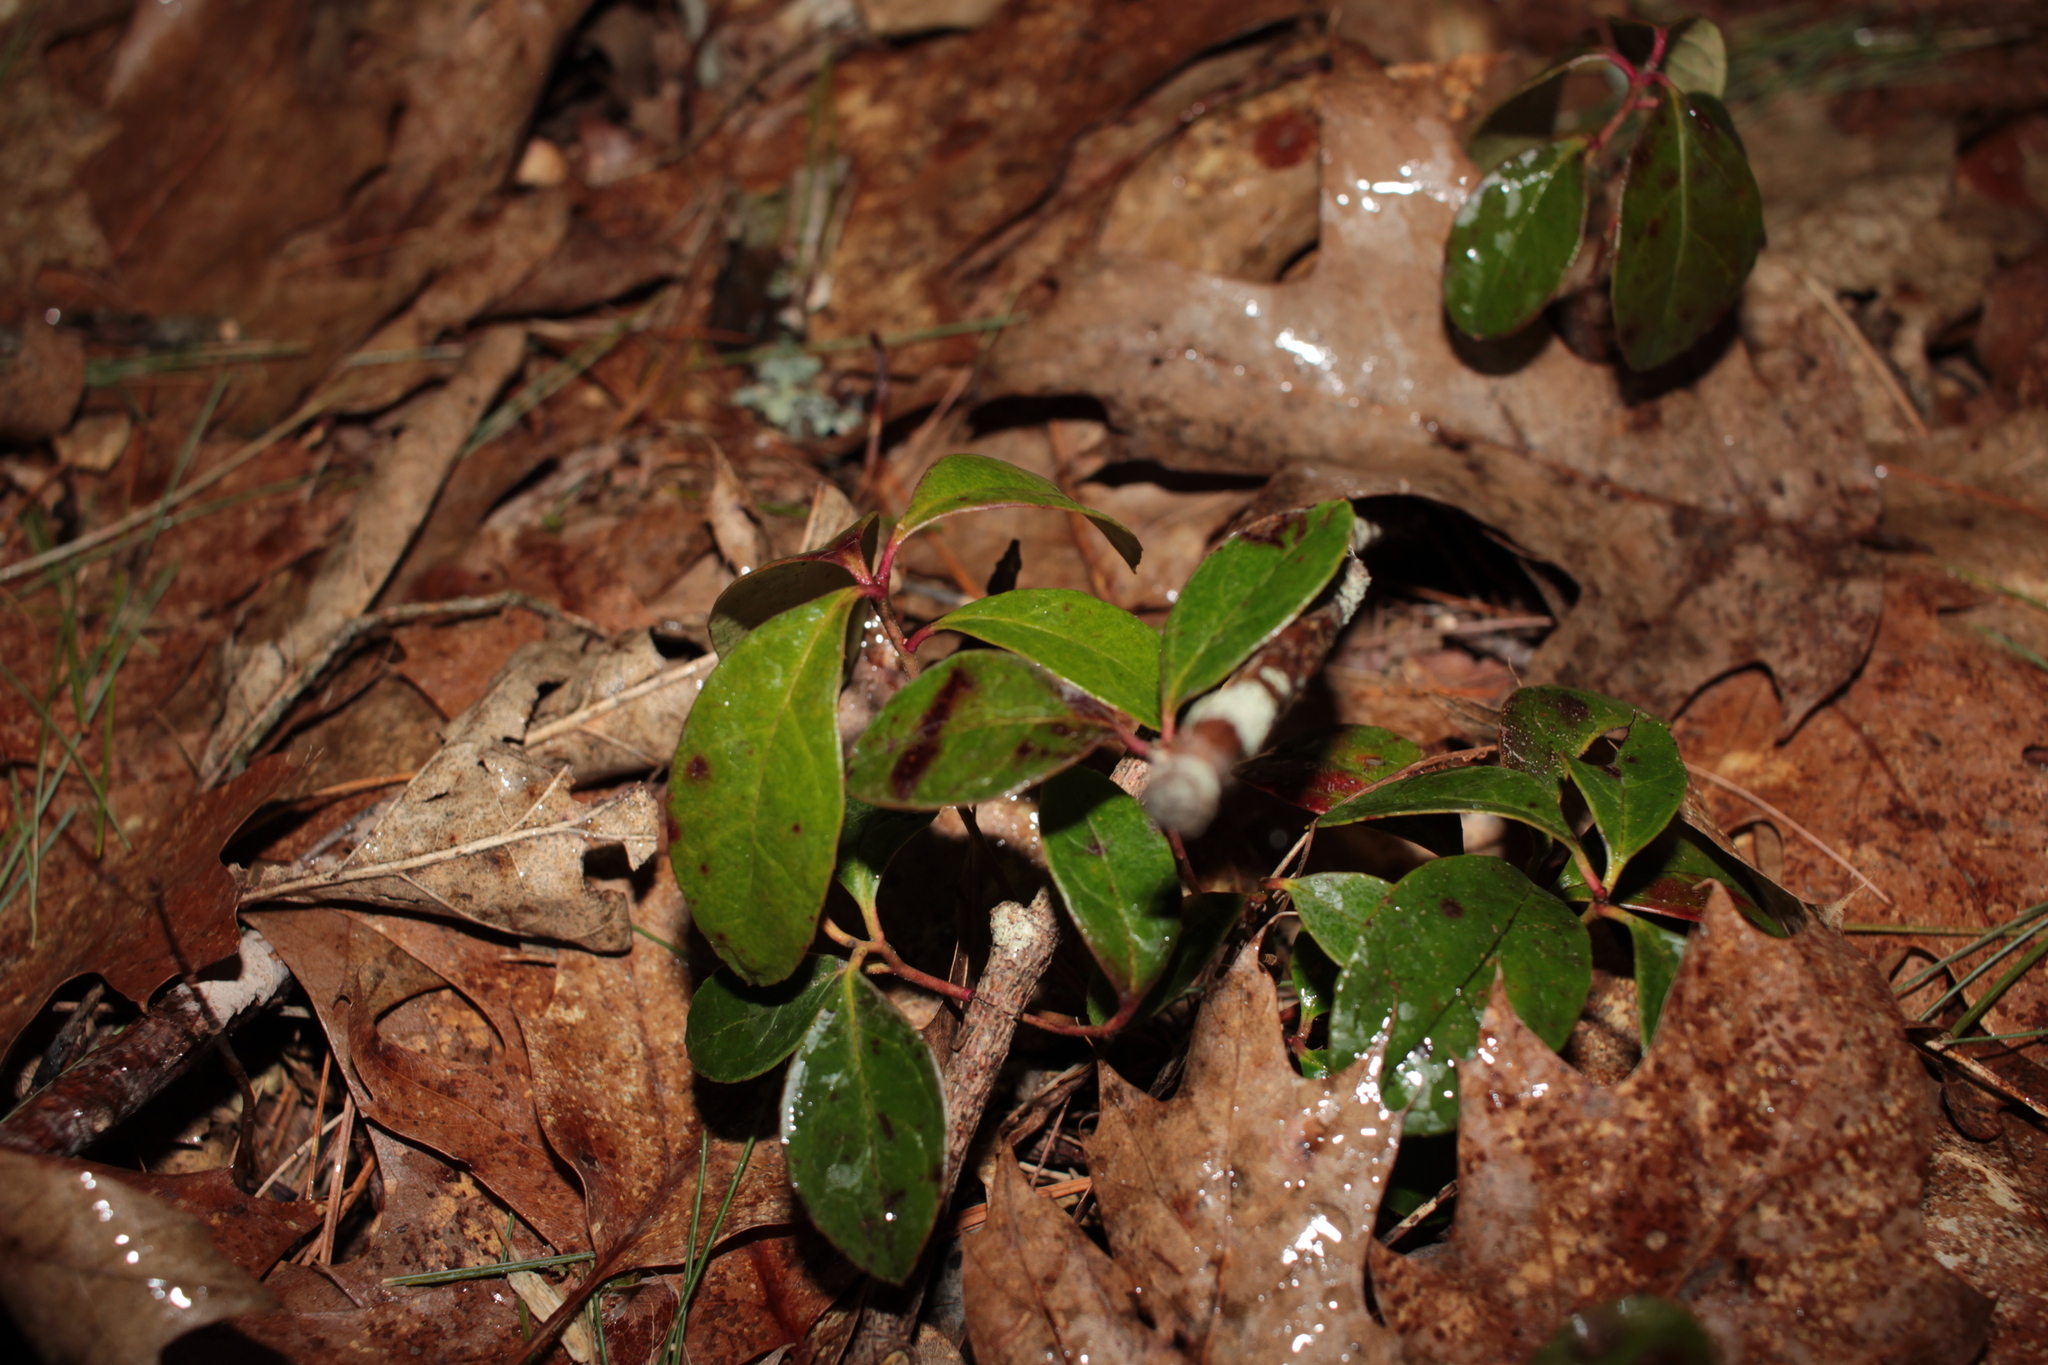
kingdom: Plantae
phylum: Tracheophyta
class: Magnoliopsida
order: Ericales
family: Ericaceae
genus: Gaultheria
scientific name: Gaultheria procumbens
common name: Checkerberry
